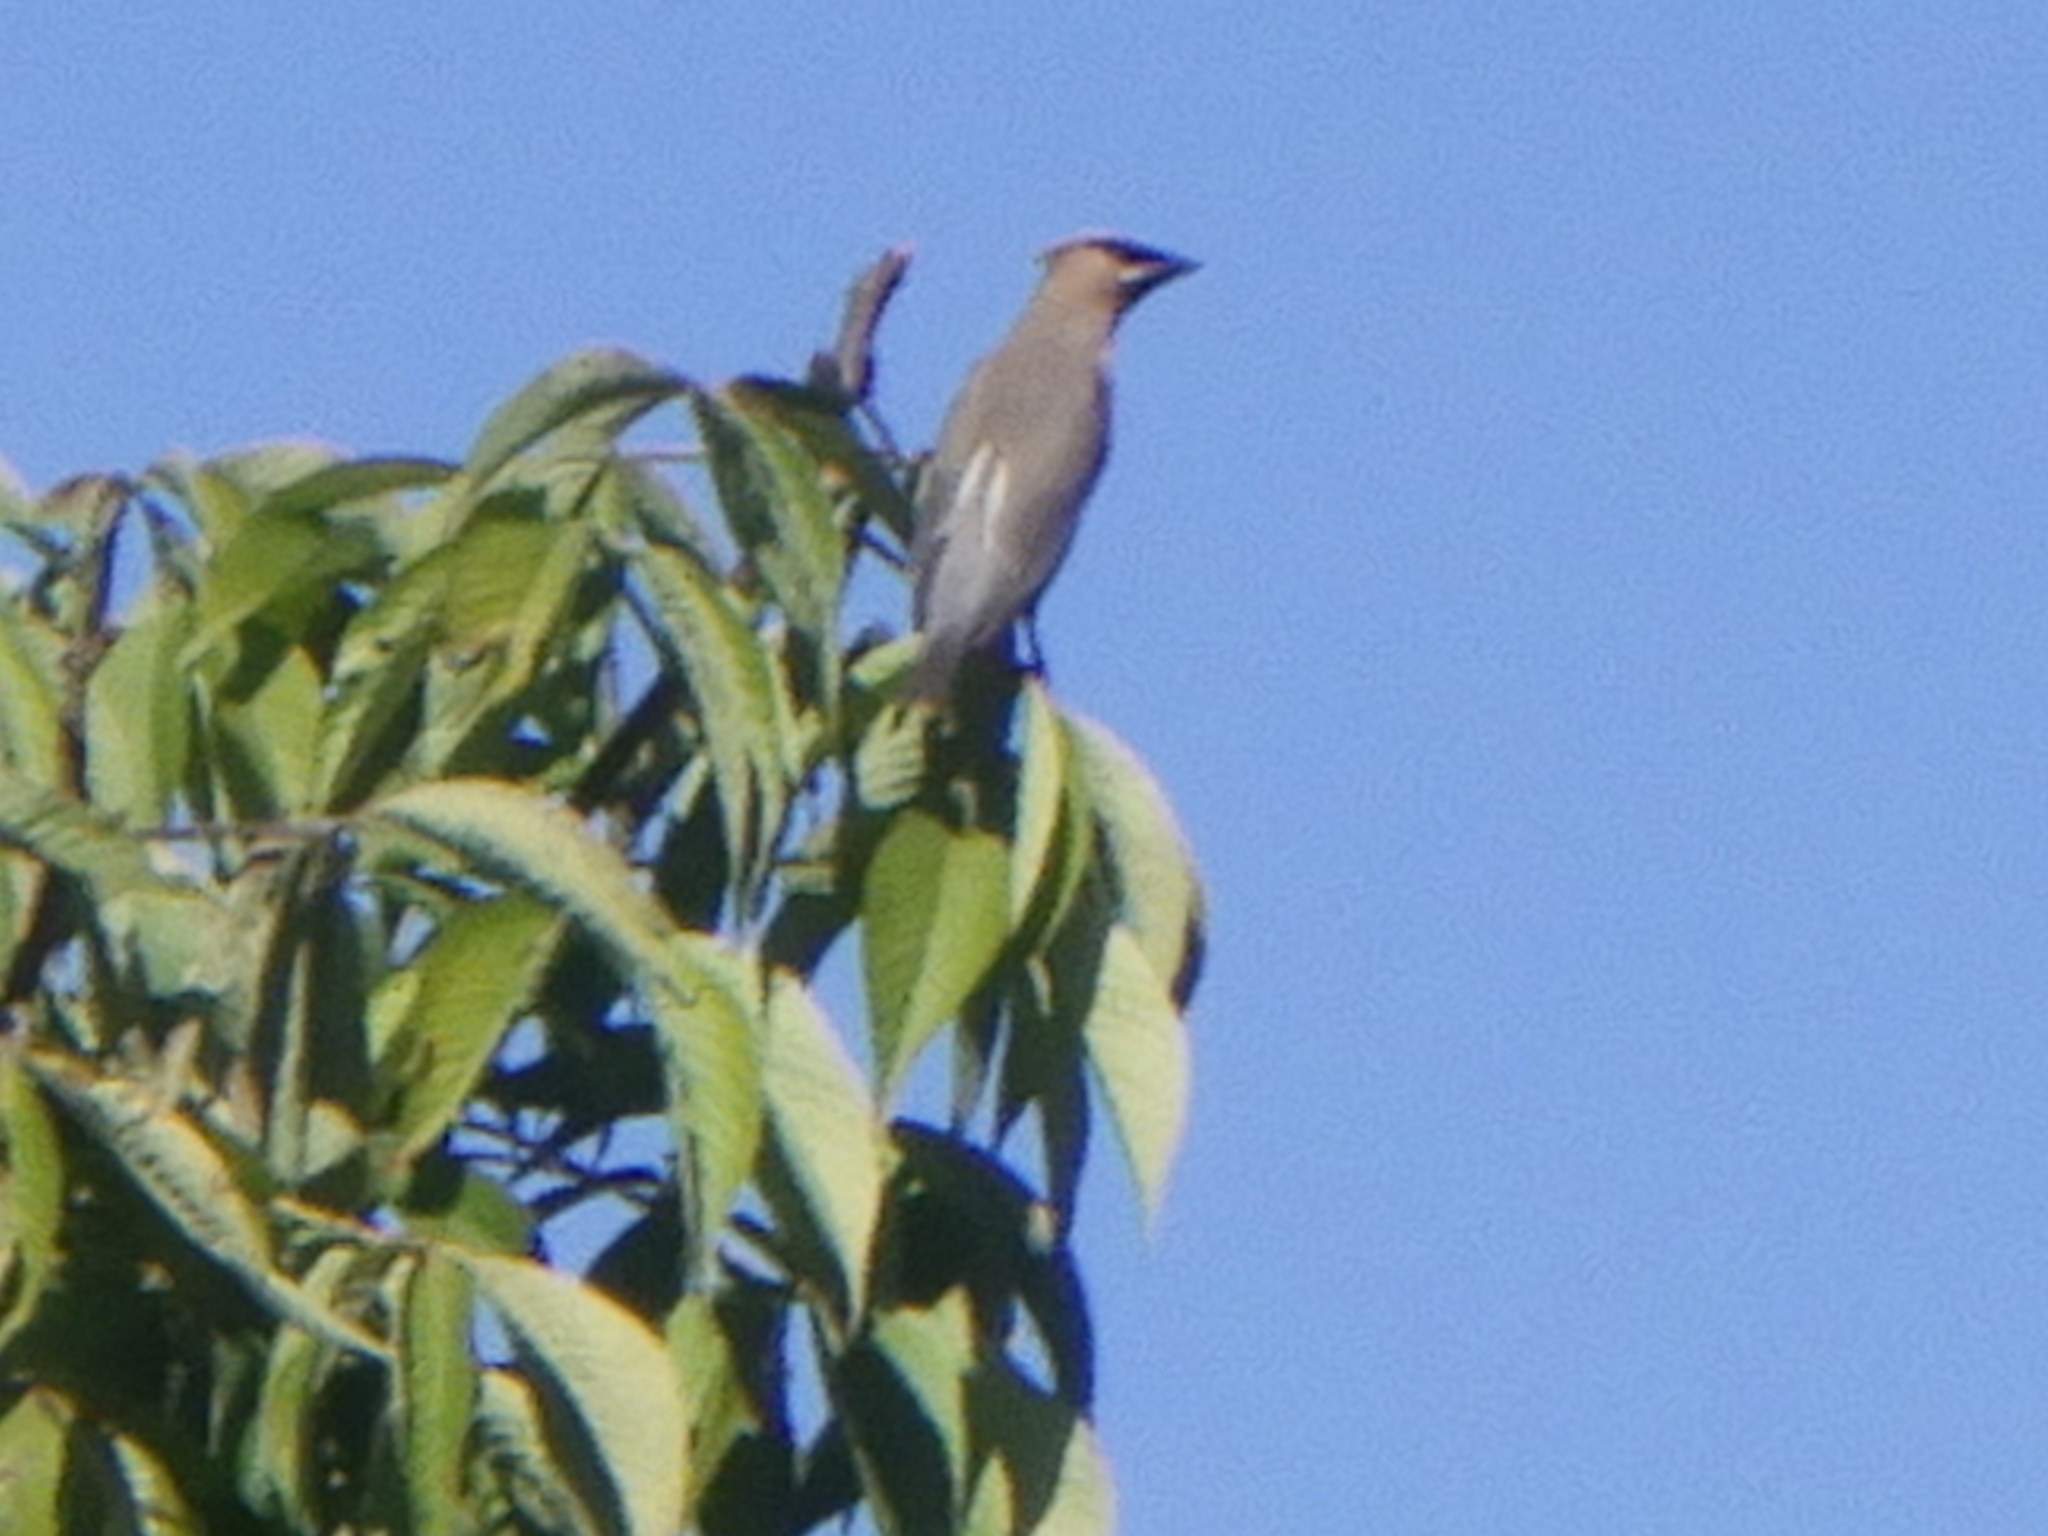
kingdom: Animalia
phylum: Chordata
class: Aves
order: Passeriformes
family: Bombycillidae
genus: Bombycilla
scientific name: Bombycilla cedrorum
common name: Cedar waxwing
